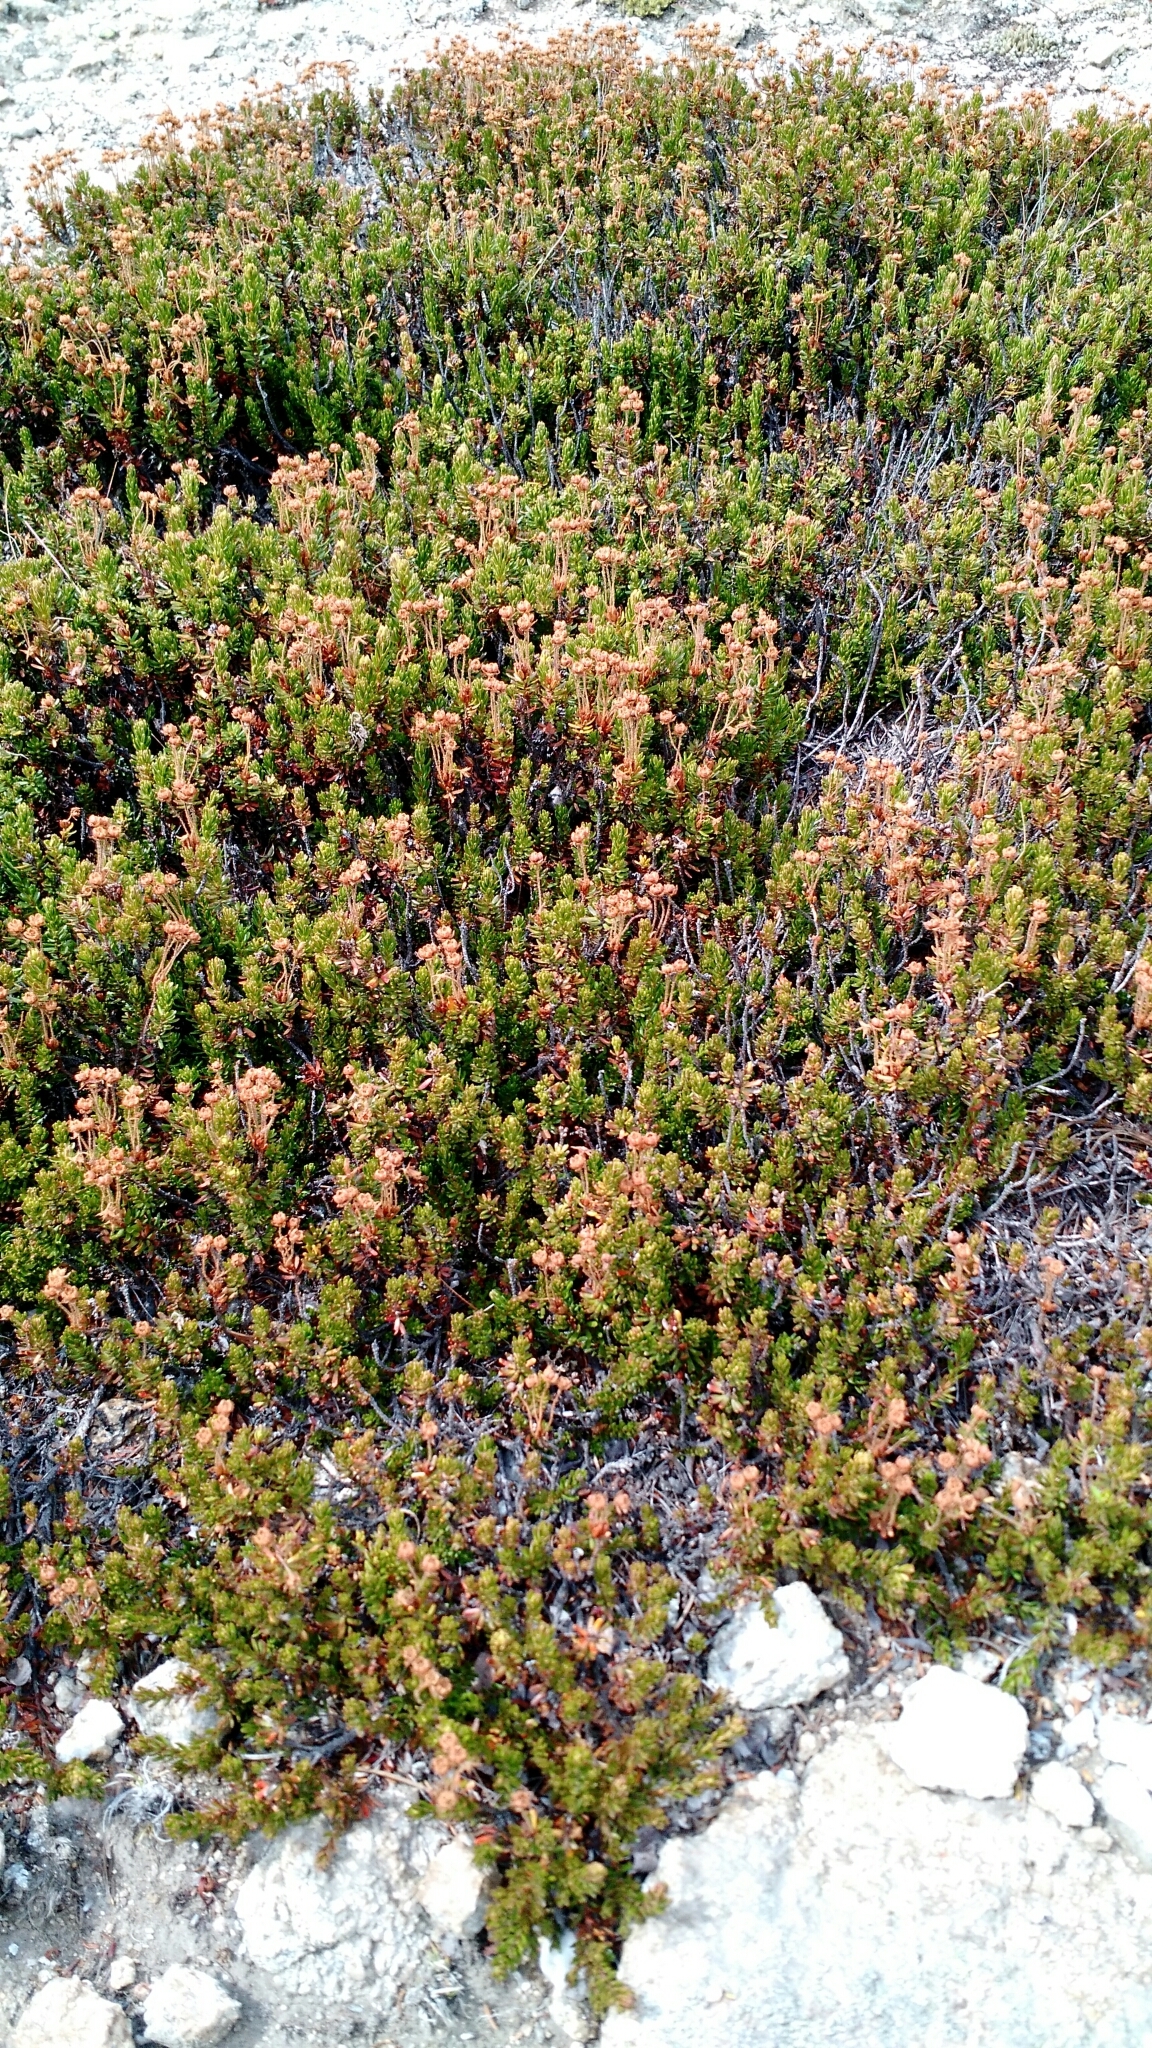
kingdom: Plantae
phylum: Tracheophyta
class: Magnoliopsida
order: Ericales
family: Ericaceae
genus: Phyllodoce
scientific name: Phyllodoce glanduliflora
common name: Cream mountain heather
